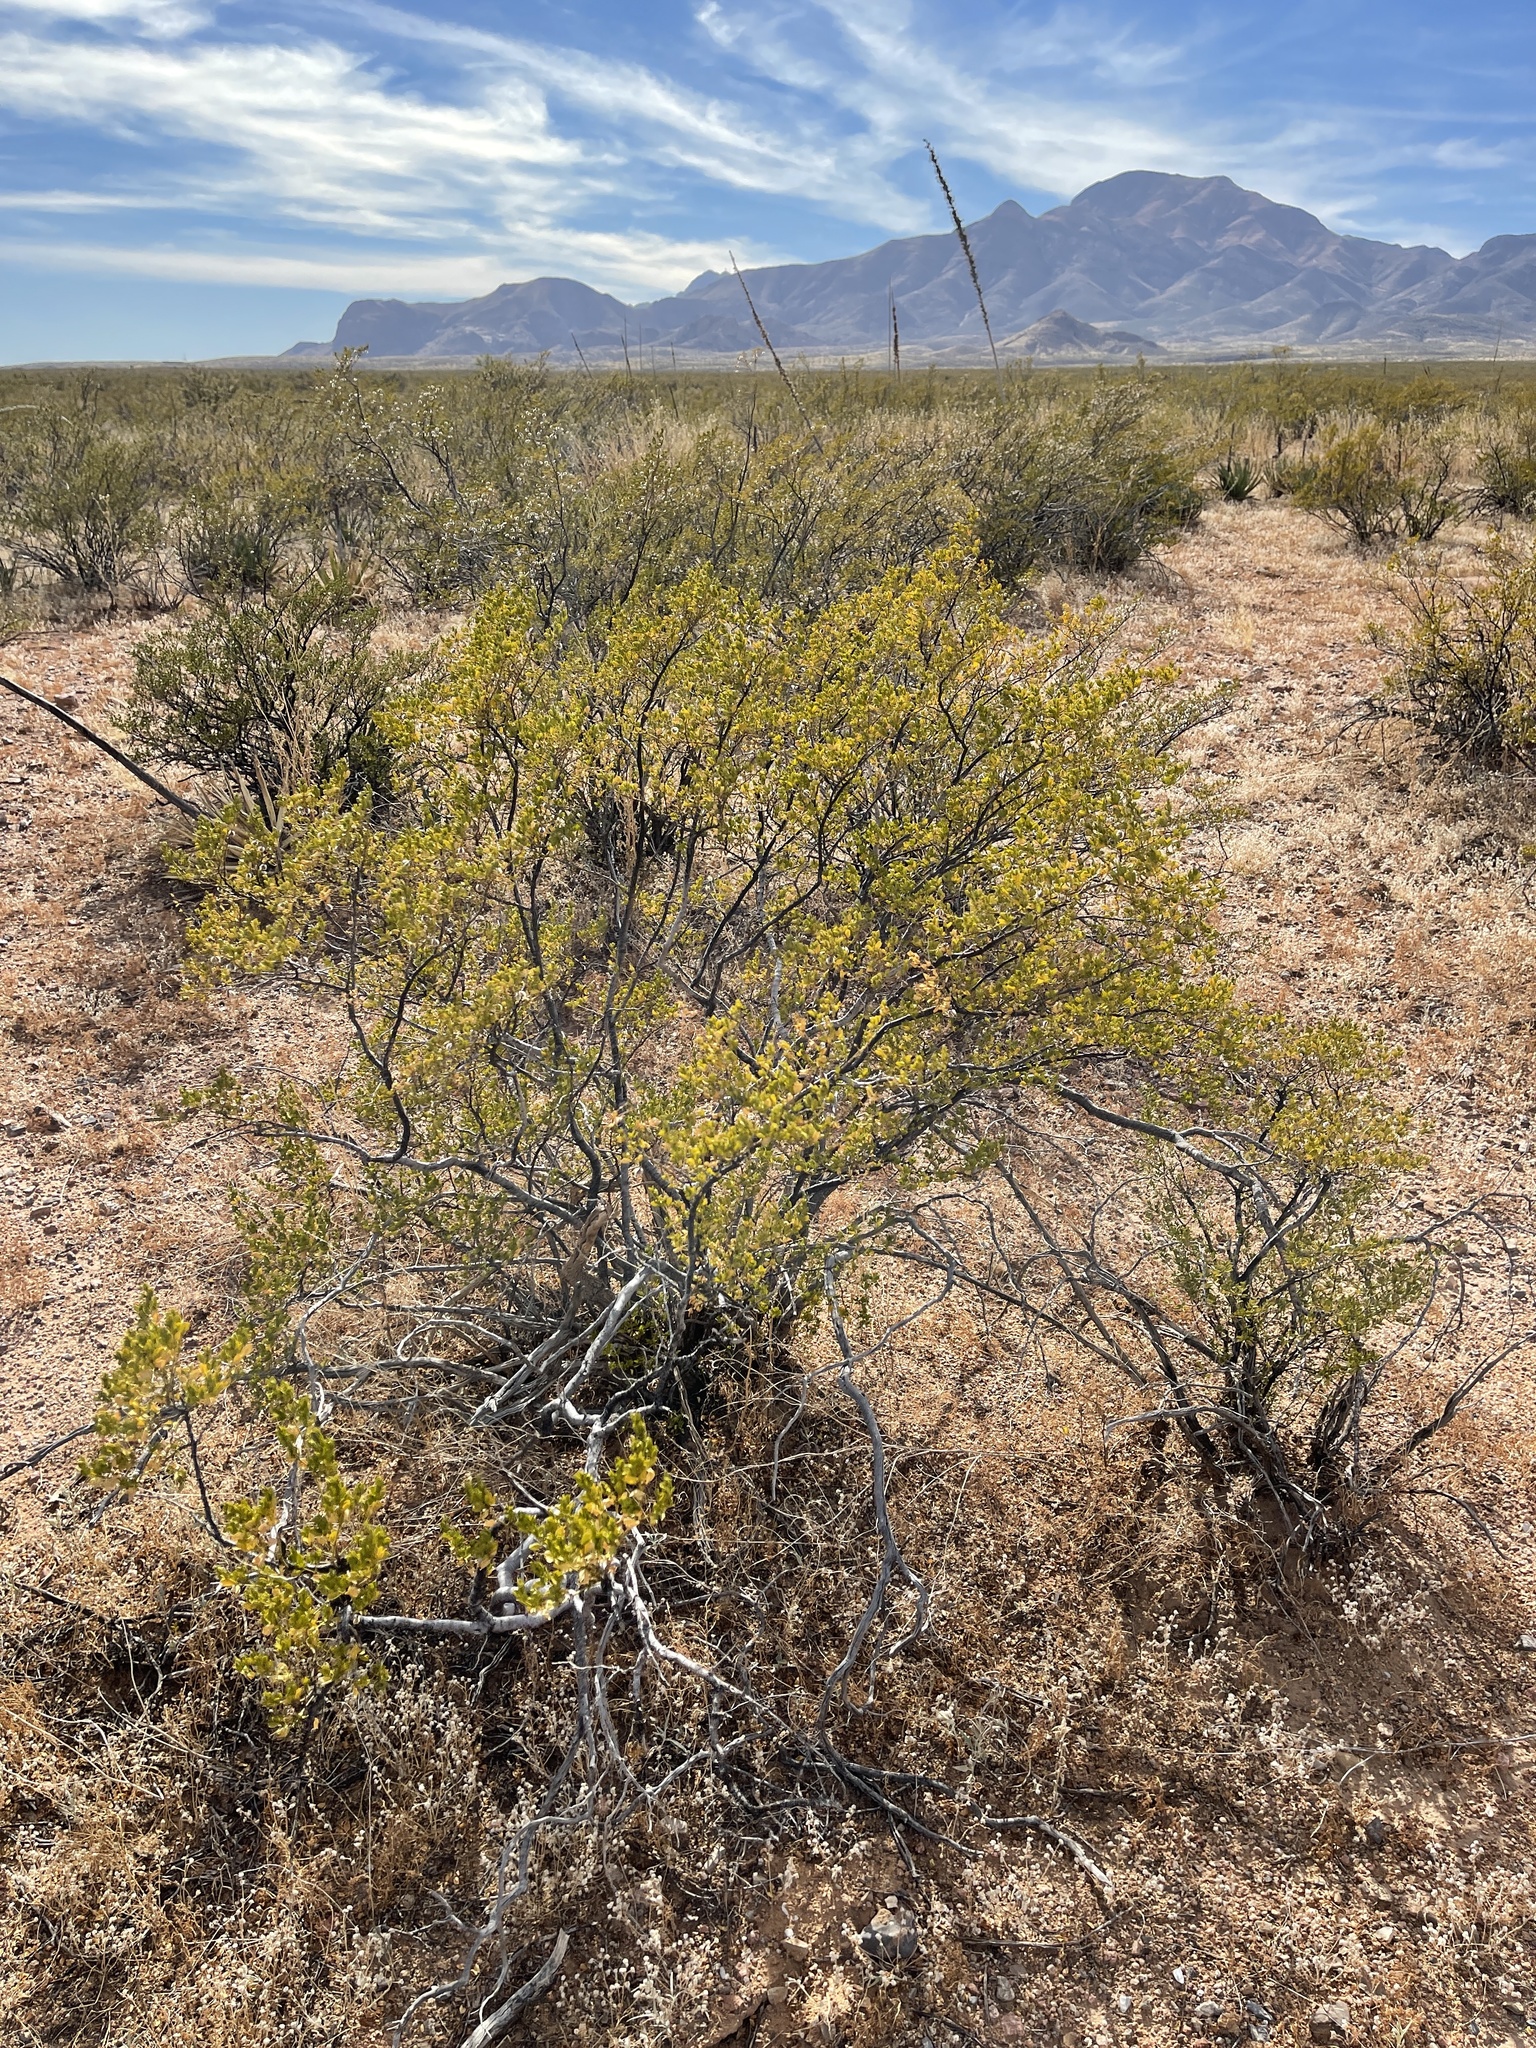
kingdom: Plantae
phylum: Tracheophyta
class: Magnoliopsida
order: Zygophyllales
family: Zygophyllaceae
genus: Larrea
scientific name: Larrea tridentata
